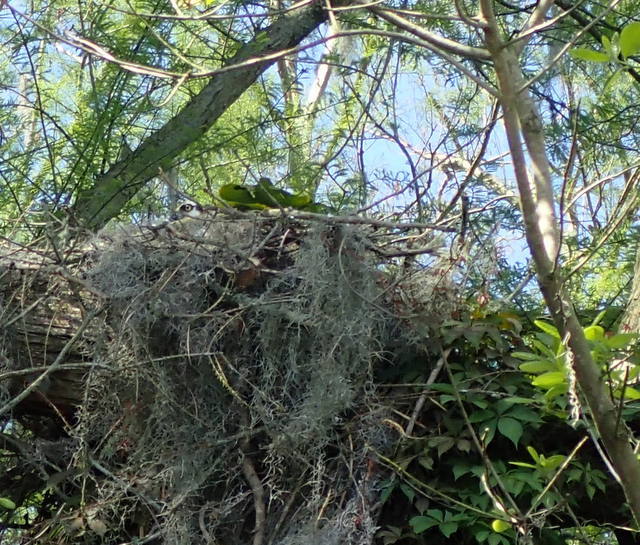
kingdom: Animalia
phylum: Chordata
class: Aves
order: Accipitriformes
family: Pandionidae
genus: Pandion
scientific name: Pandion haliaetus
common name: Osprey
